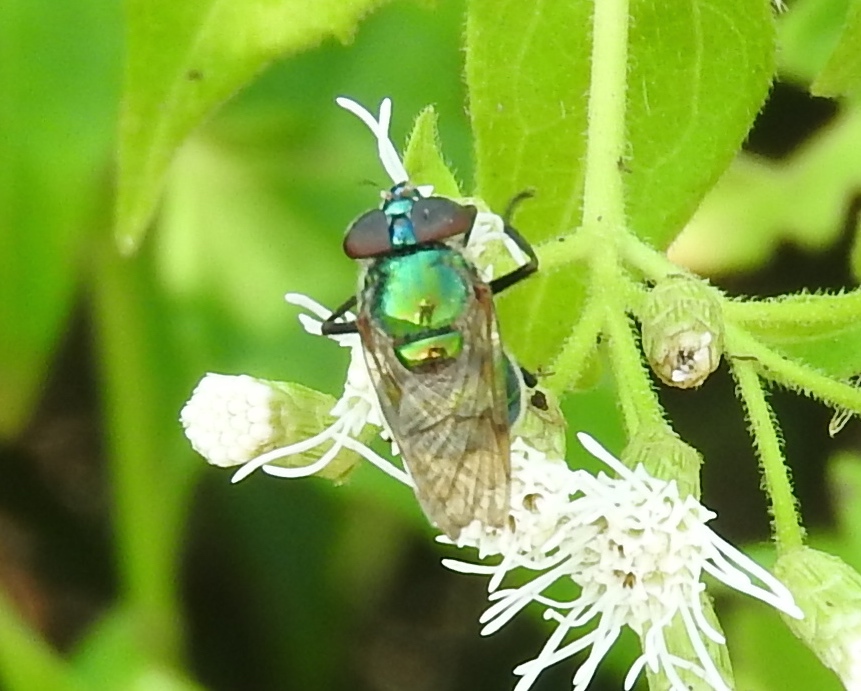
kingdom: Animalia
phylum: Arthropoda
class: Insecta
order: Diptera
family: Syrphidae
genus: Copestylum
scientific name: Copestylum
